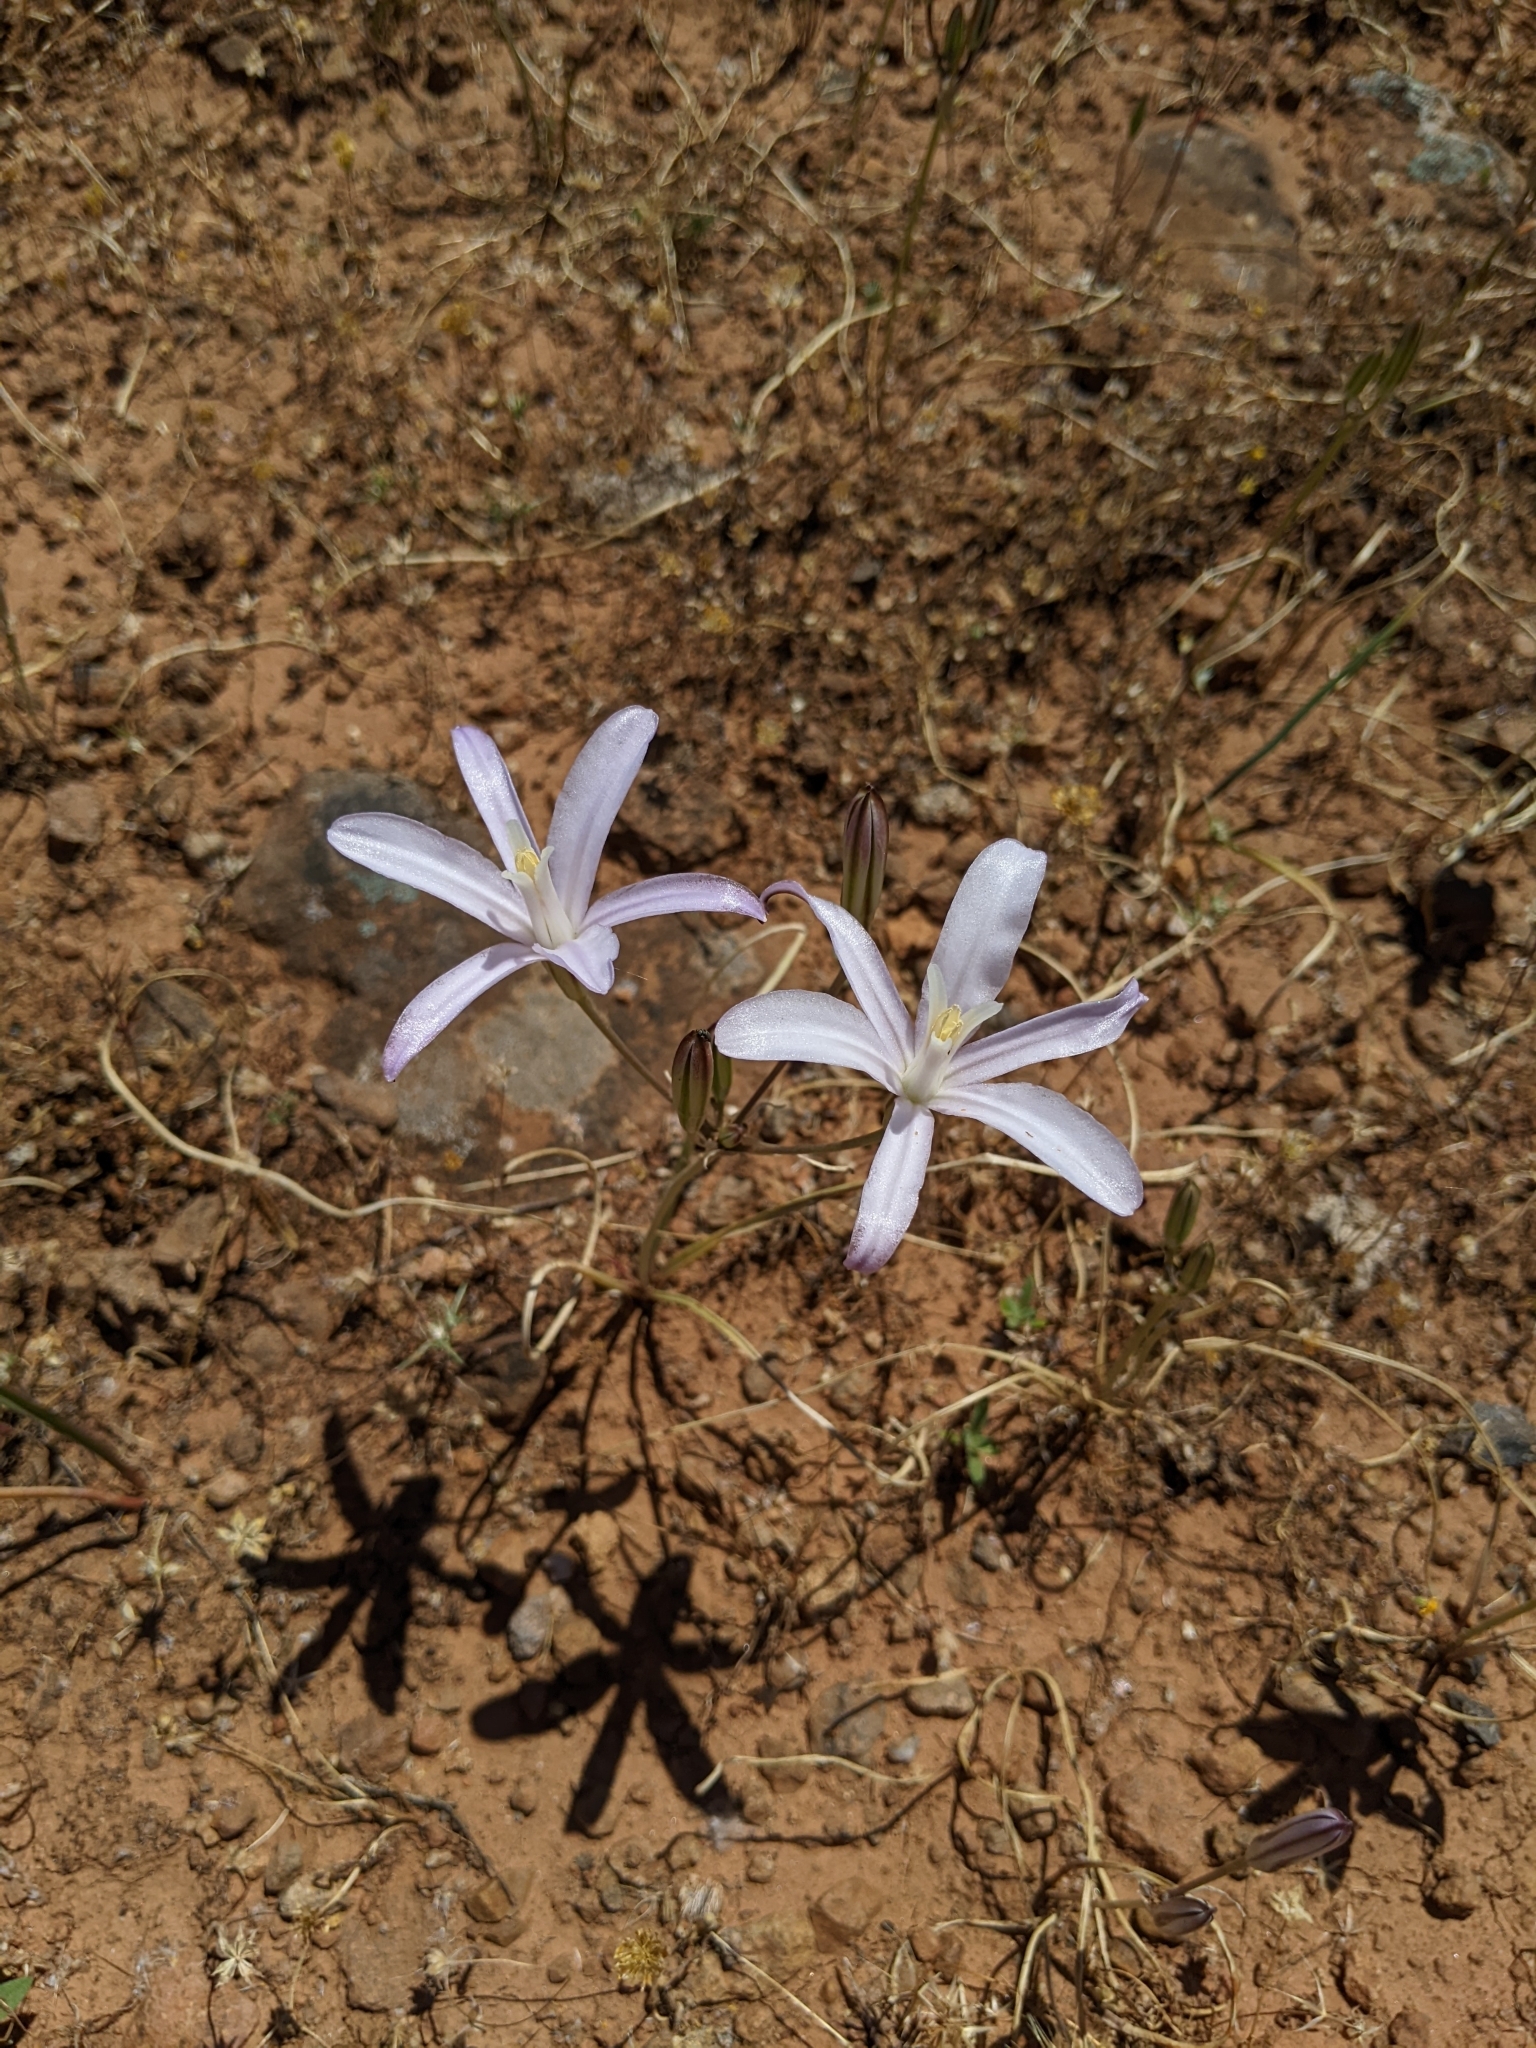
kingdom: Plantae
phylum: Tracheophyta
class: Liliopsida
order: Asparagales
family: Asparagaceae
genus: Brodiaea
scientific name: Brodiaea californica
